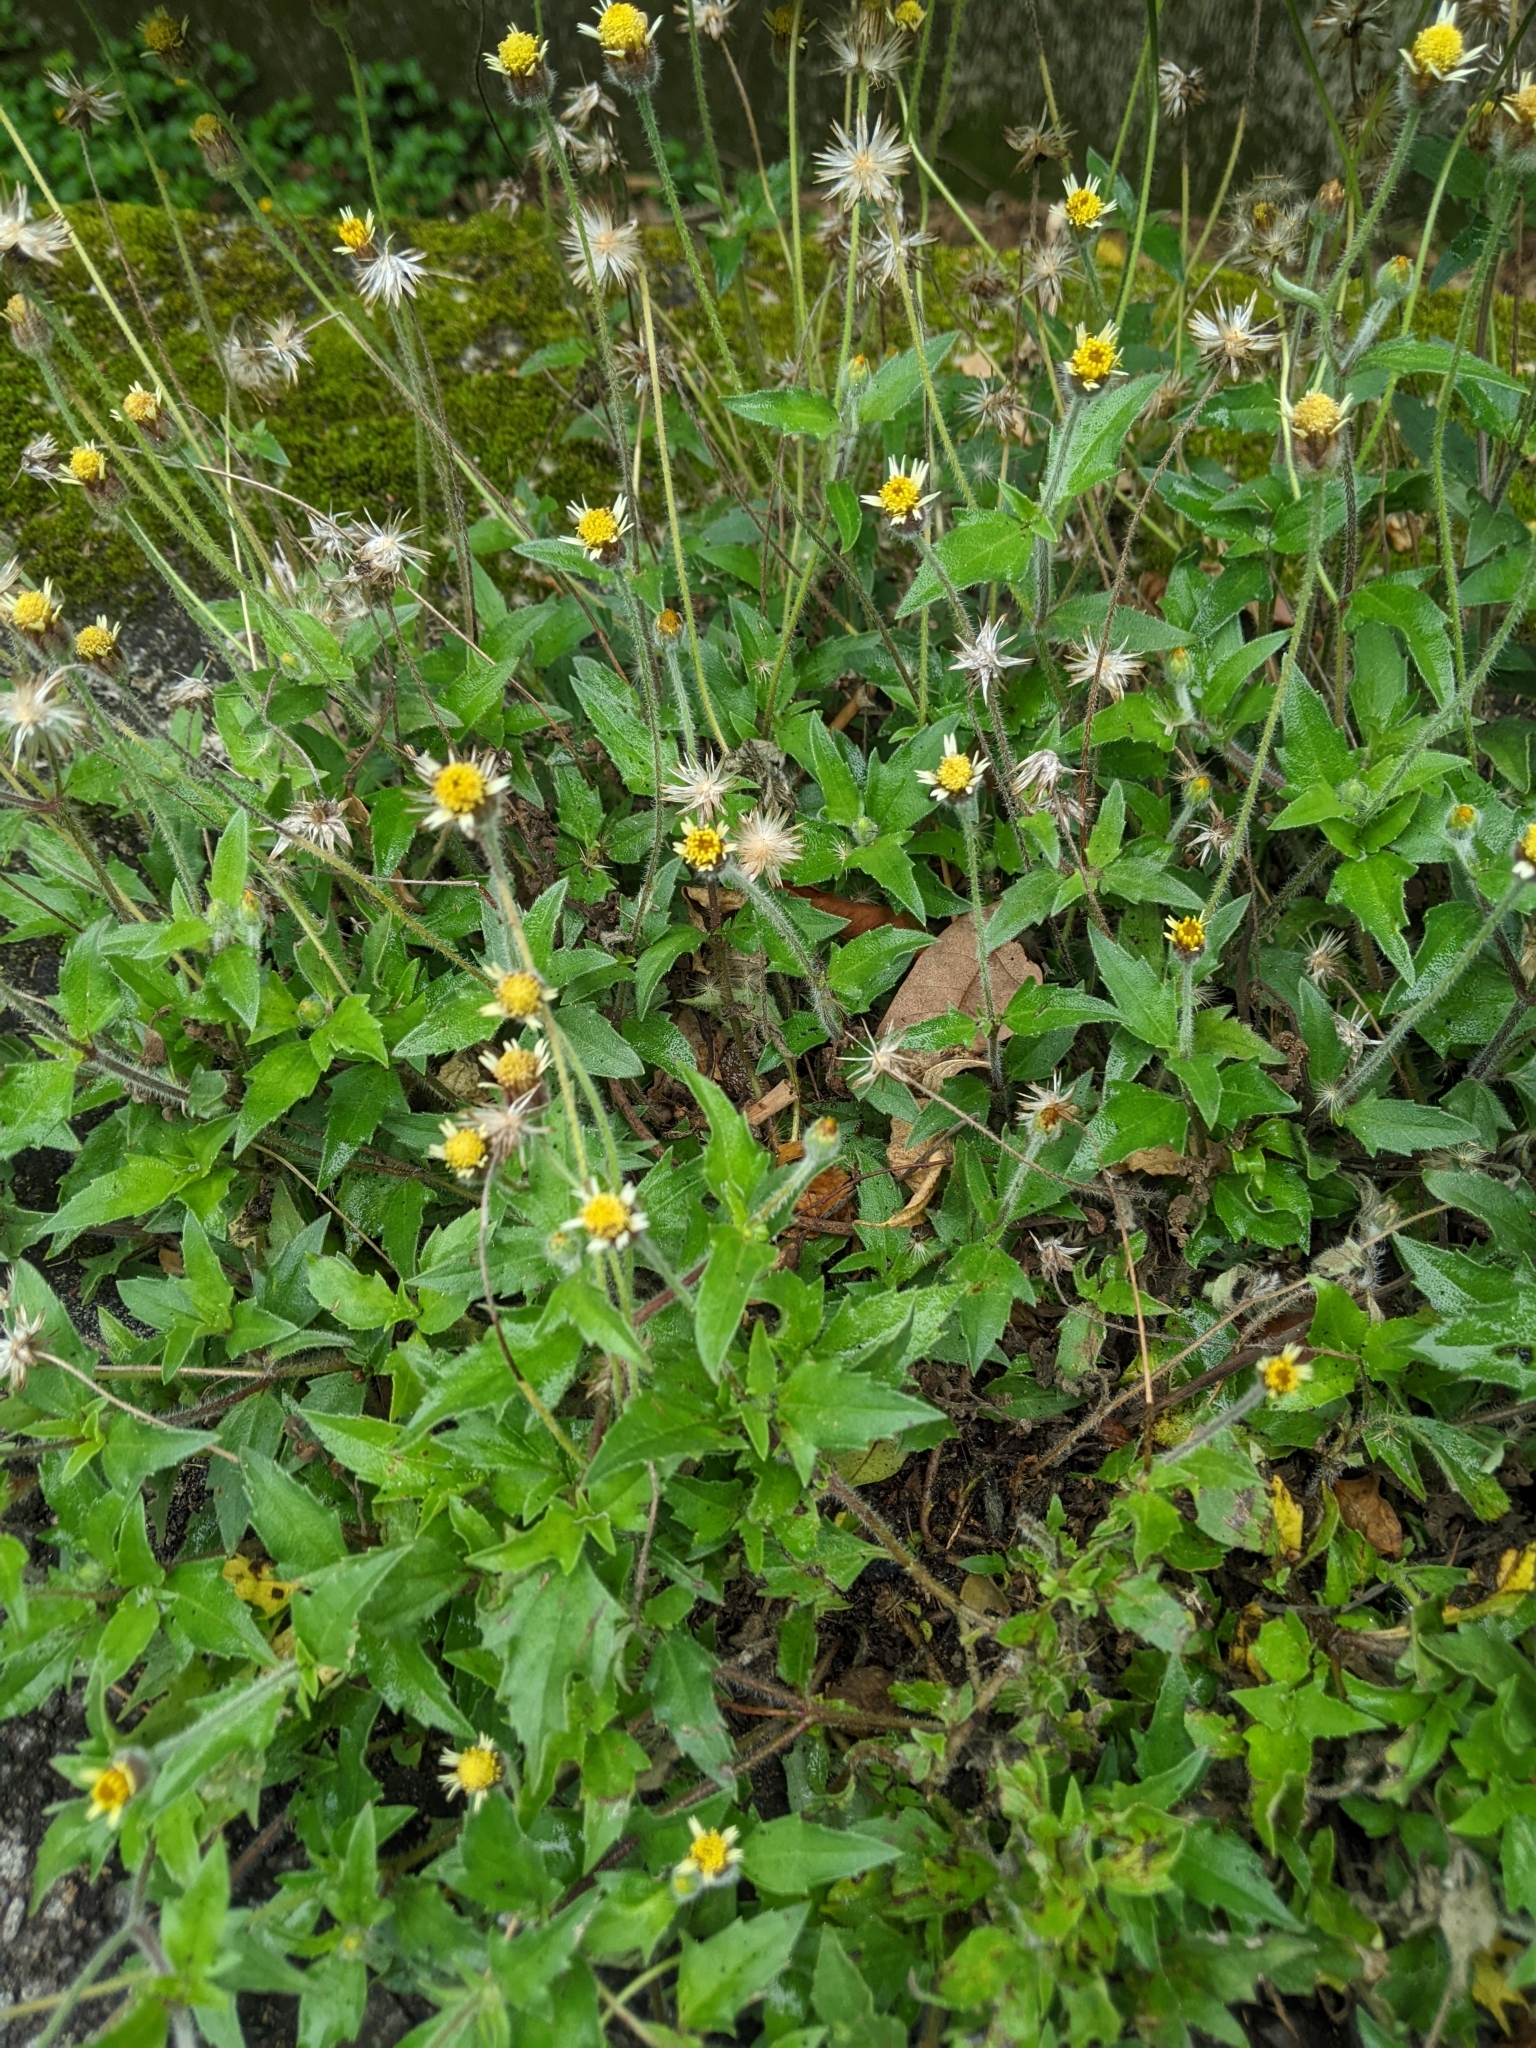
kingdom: Plantae
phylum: Tracheophyta
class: Magnoliopsida
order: Asterales
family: Asteraceae
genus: Tridax
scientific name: Tridax procumbens
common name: Coatbuttons
